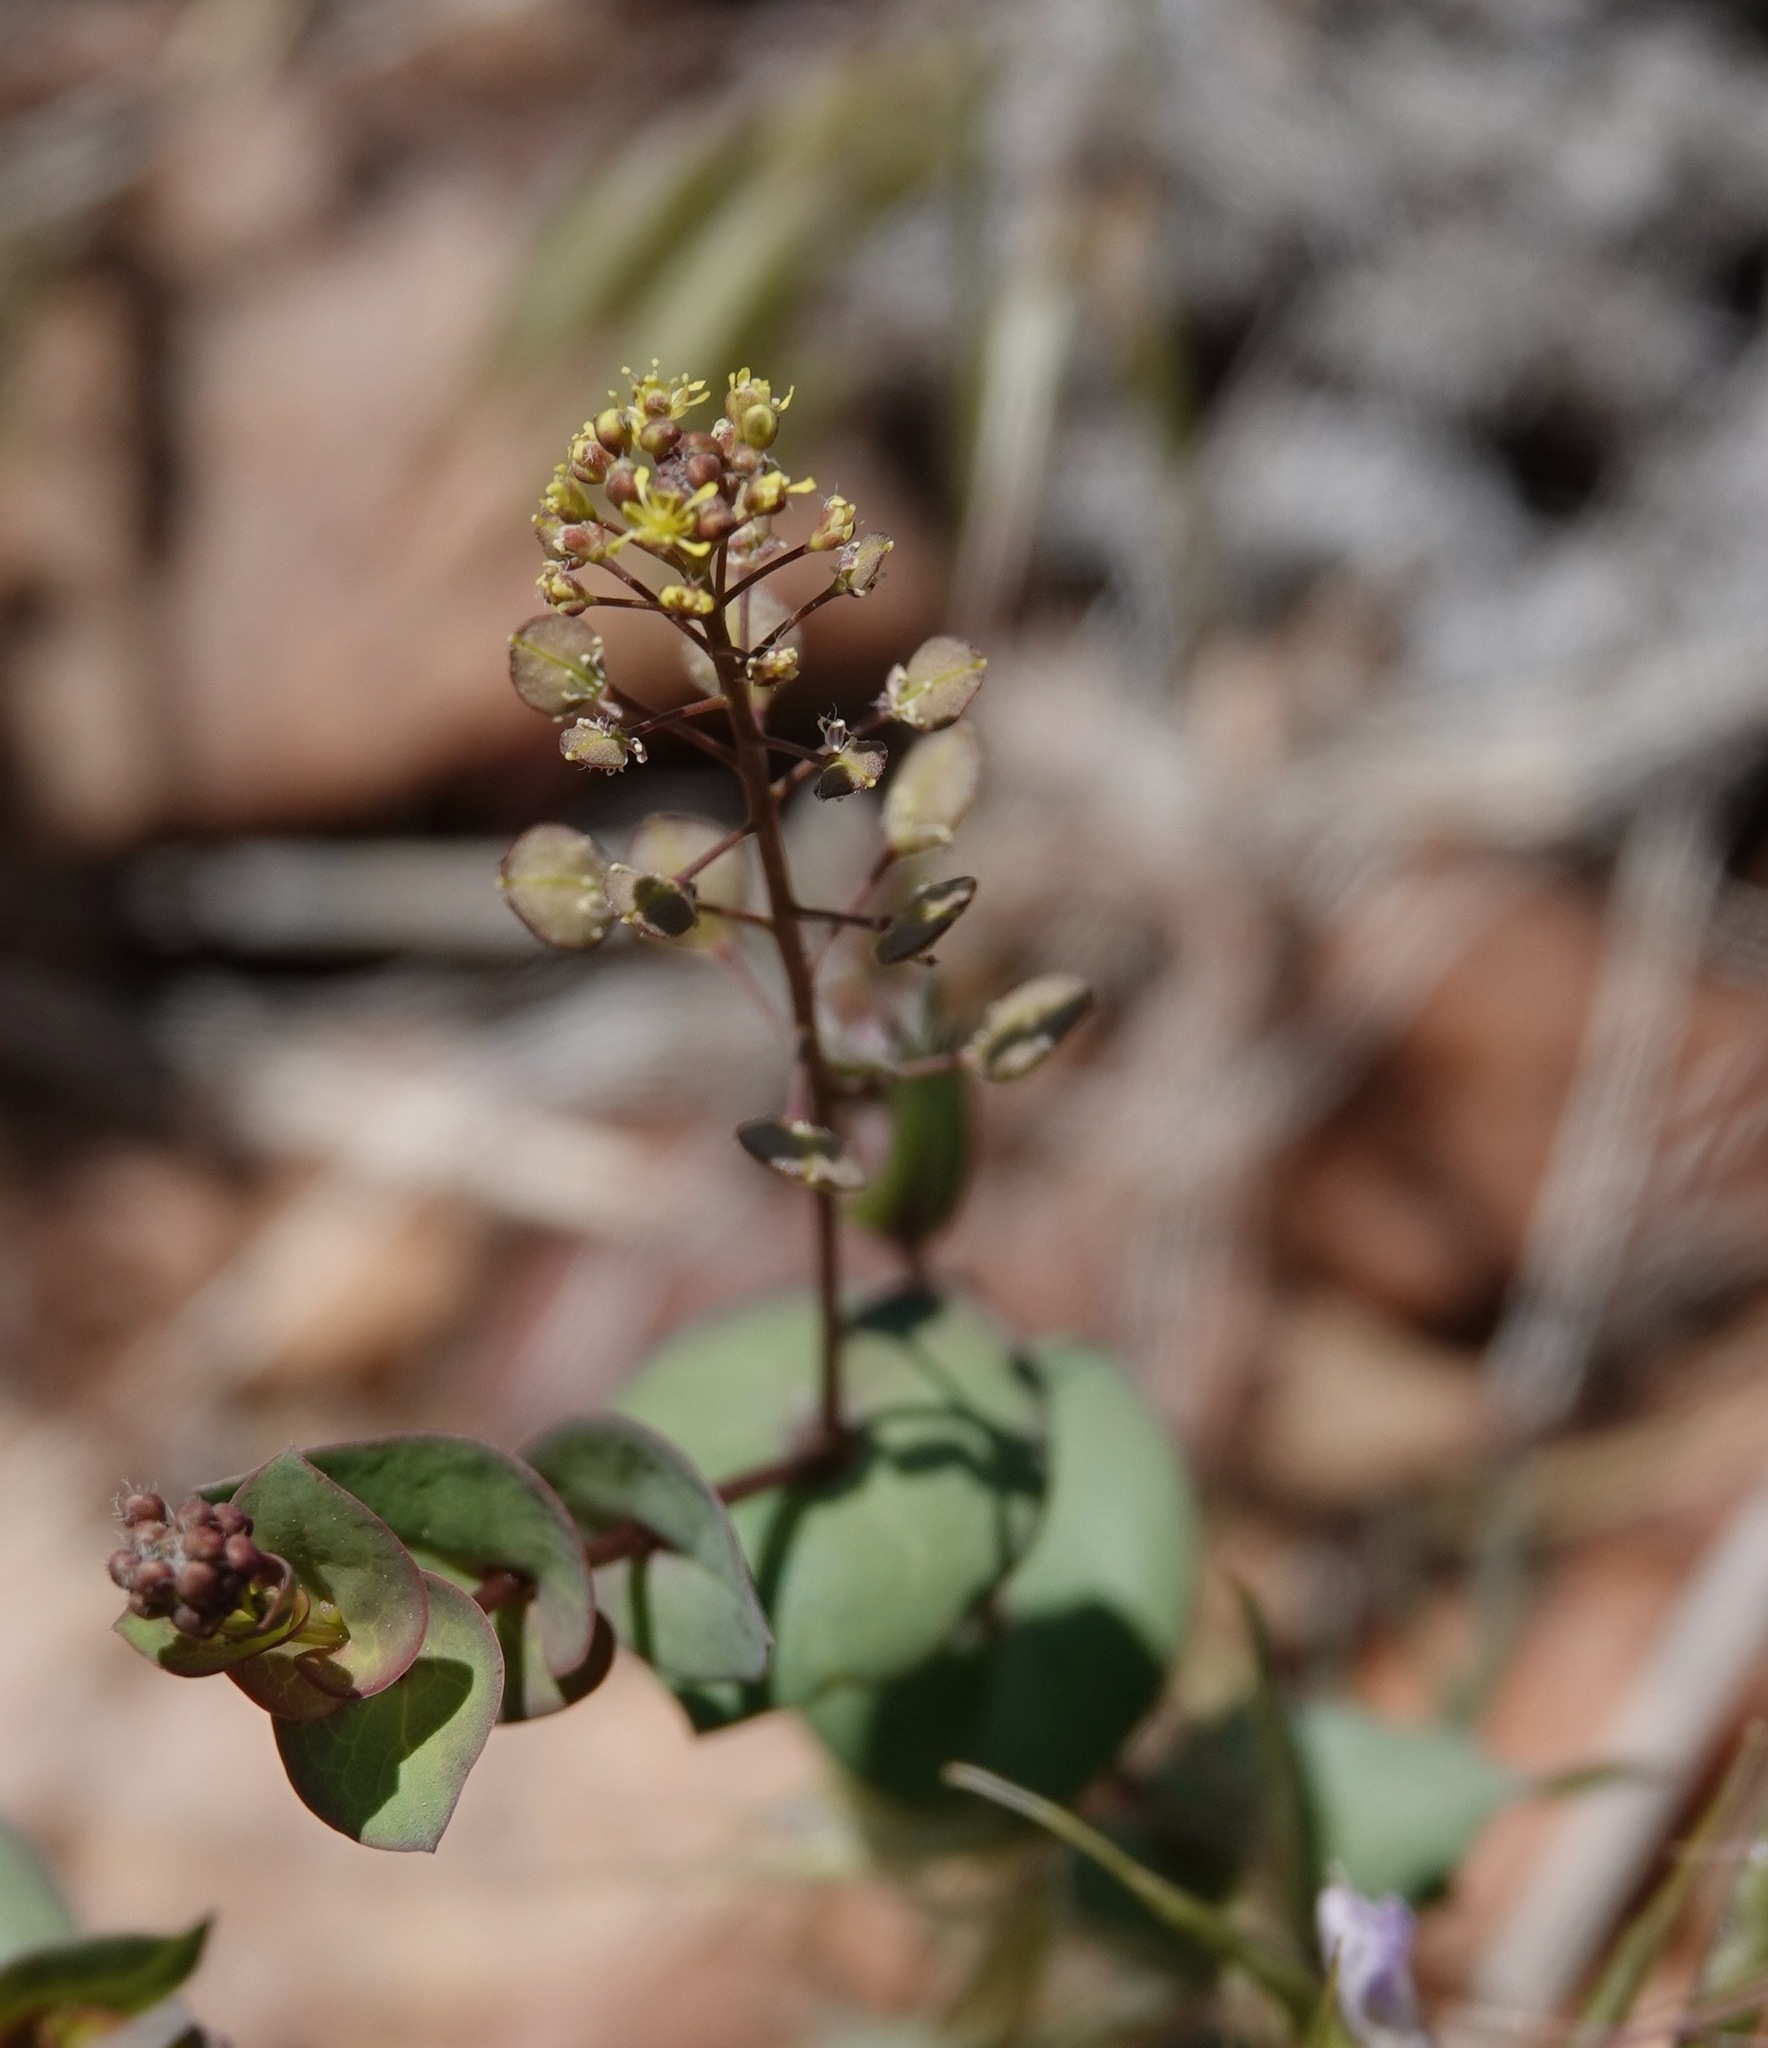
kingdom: Plantae
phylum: Tracheophyta
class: Magnoliopsida
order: Brassicales
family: Brassicaceae
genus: Lepidium
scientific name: Lepidium perfoliatum
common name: Perfoliate pepperwort
